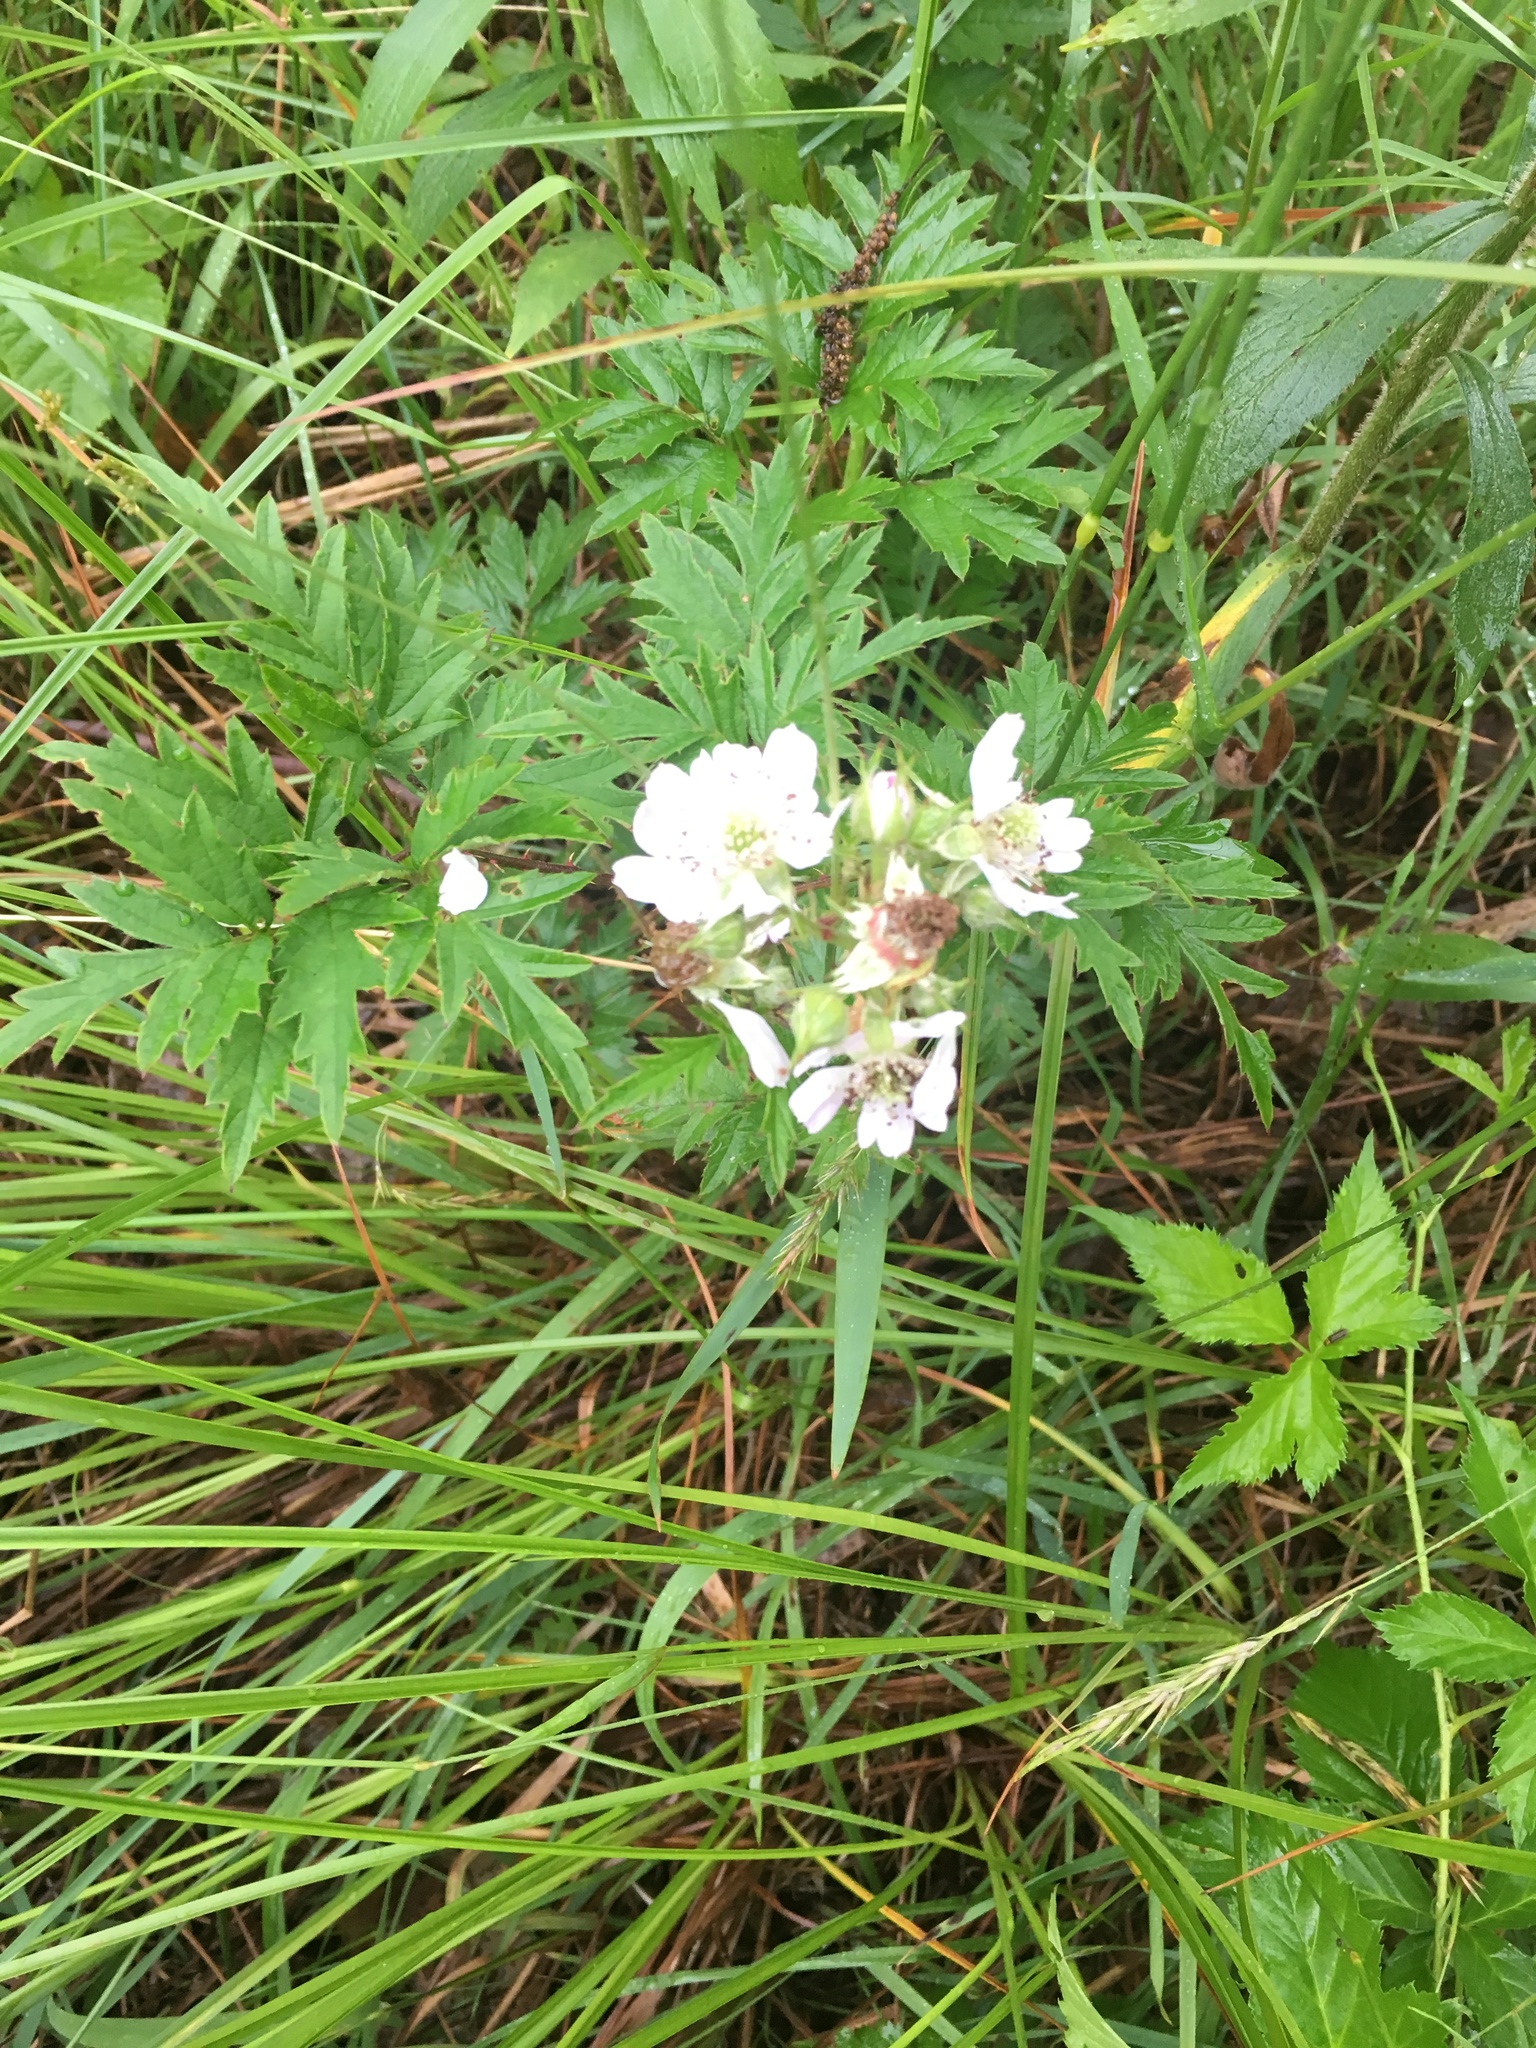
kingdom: Plantae
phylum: Tracheophyta
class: Magnoliopsida
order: Rosales
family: Rosaceae
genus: Rubus
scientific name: Rubus laciniatus
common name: Evergreen blackberry
